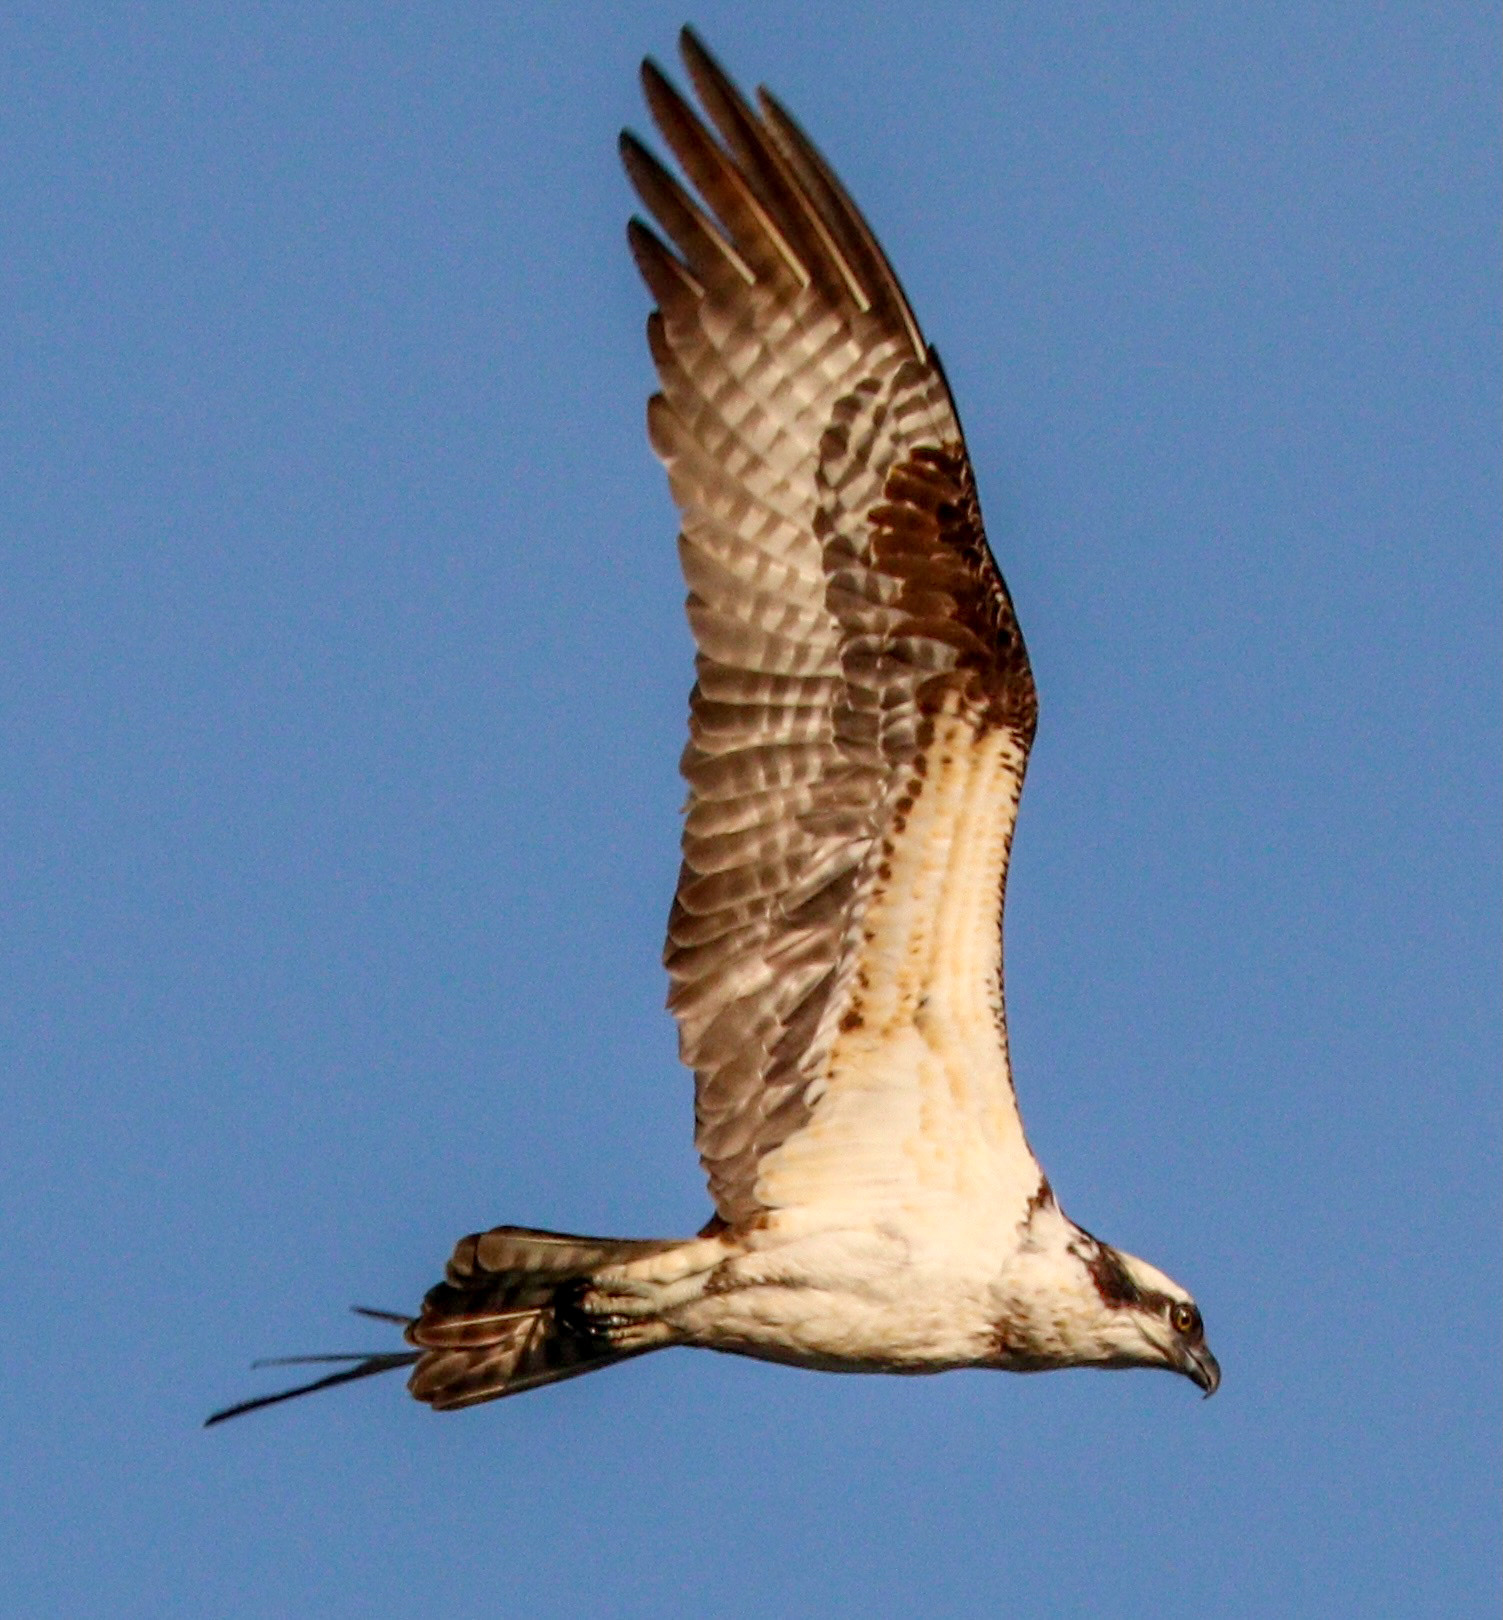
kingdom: Animalia
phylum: Chordata
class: Aves
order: Accipitriformes
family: Pandionidae
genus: Pandion
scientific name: Pandion haliaetus
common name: Osprey
